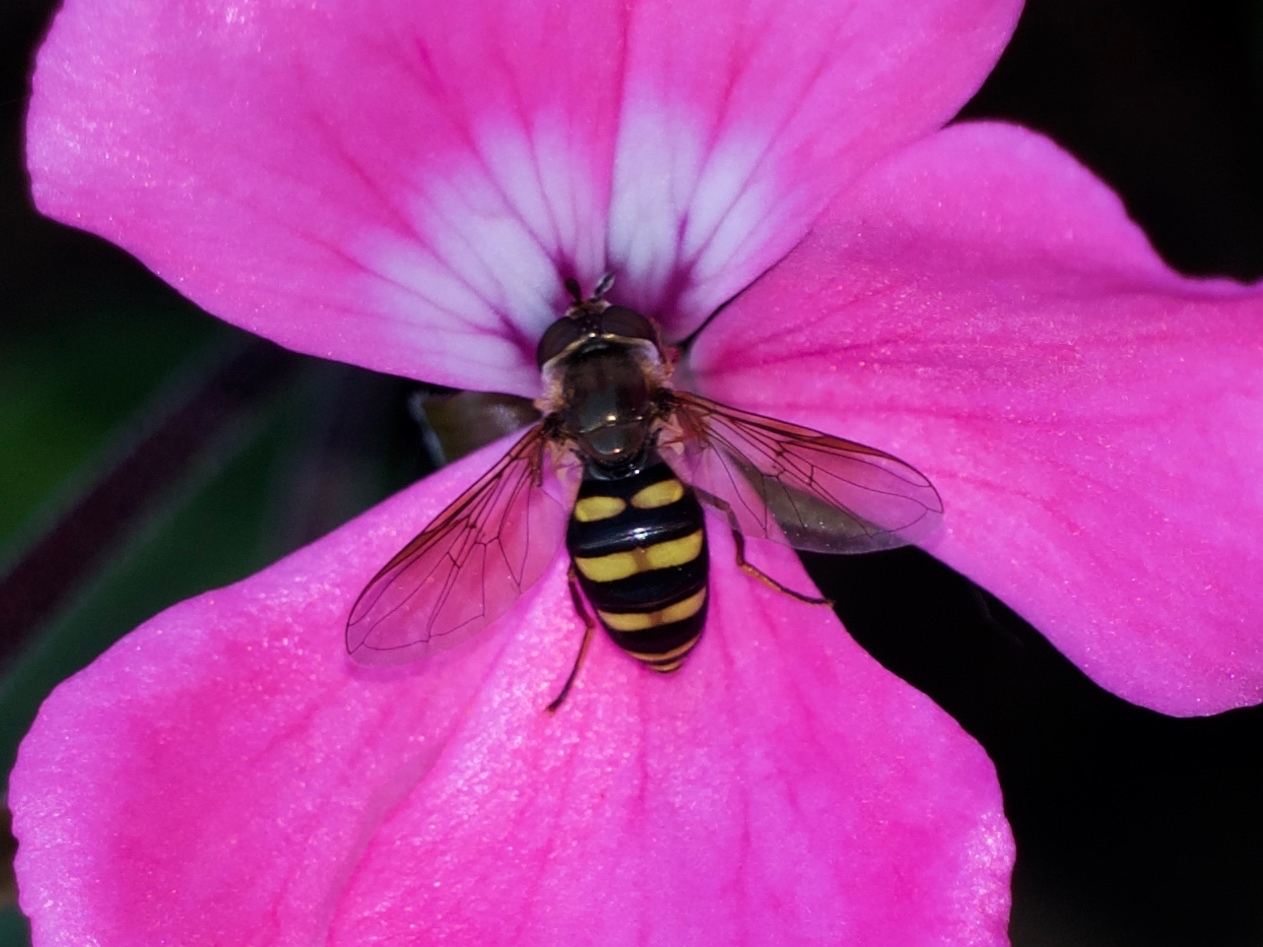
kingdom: Animalia
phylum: Arthropoda
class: Insecta
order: Diptera
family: Syrphidae
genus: Eupeodes
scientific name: Eupeodes
